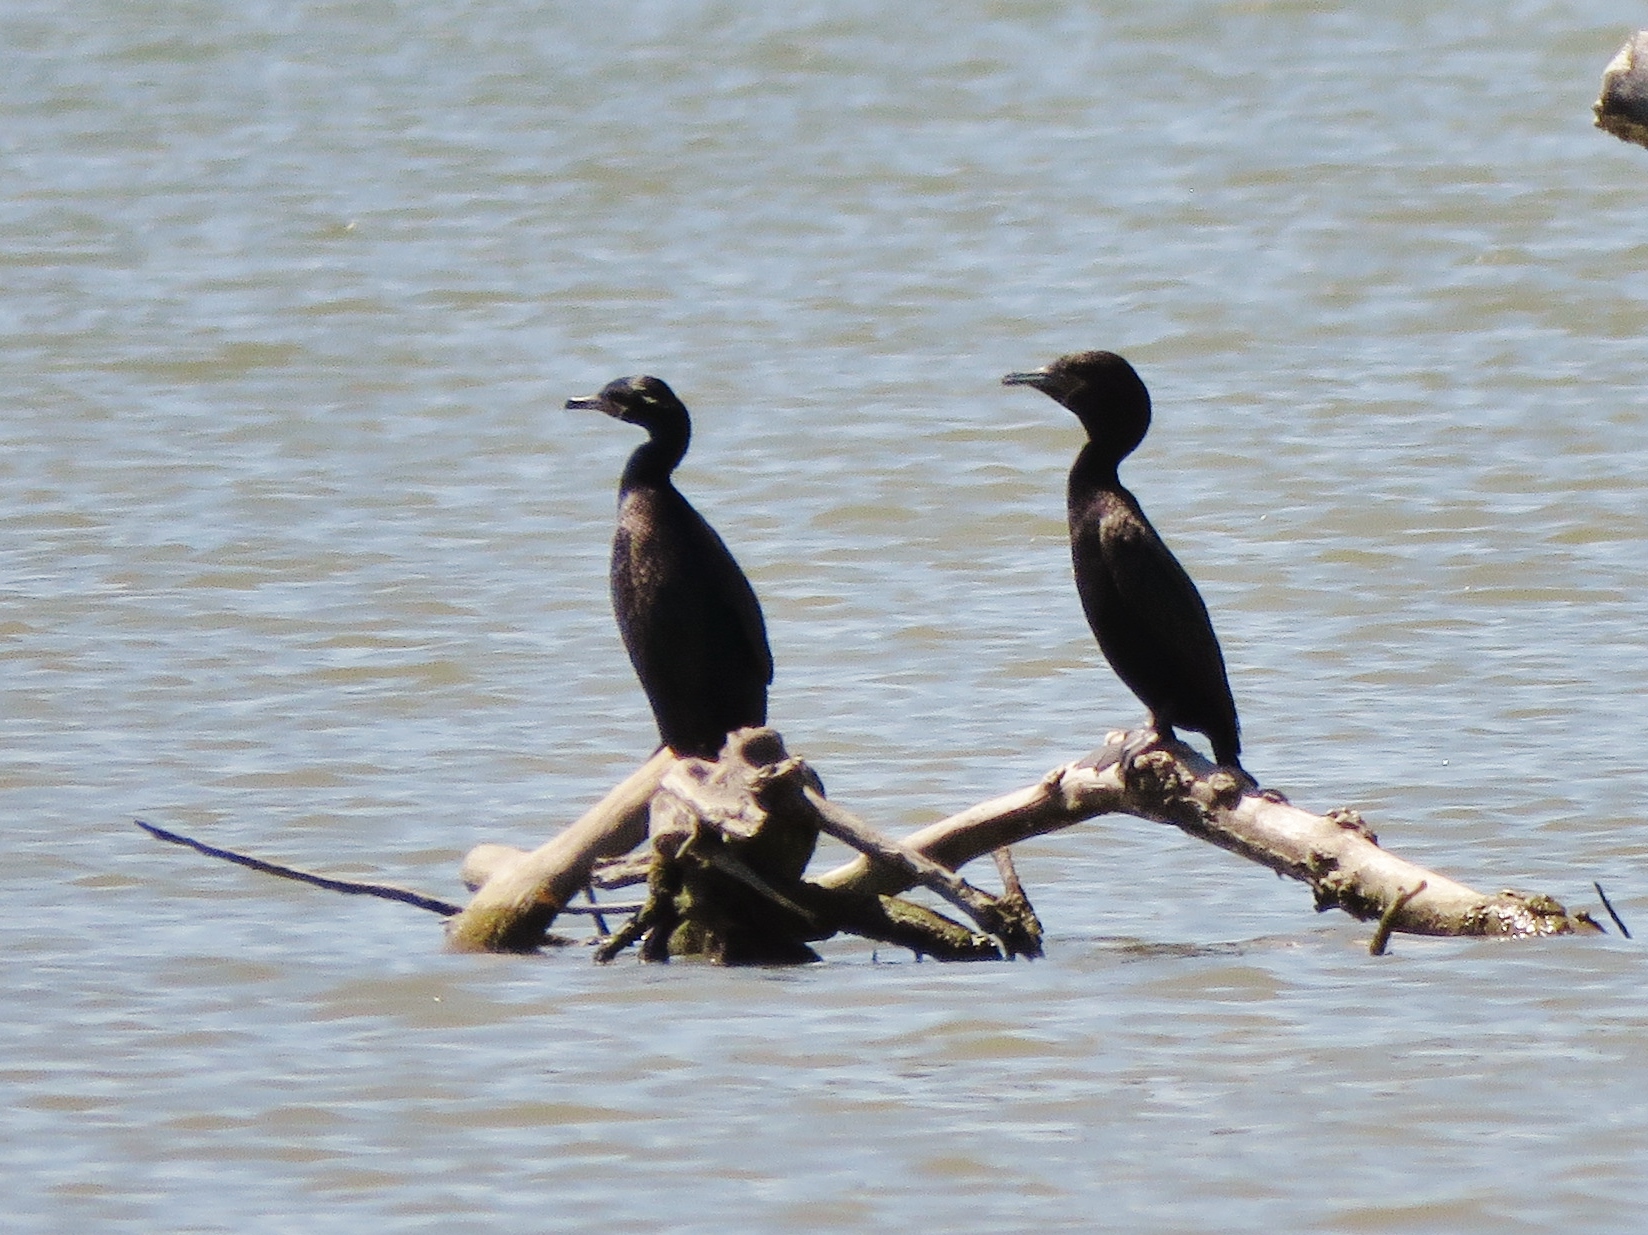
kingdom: Animalia
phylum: Chordata
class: Aves
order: Suliformes
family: Phalacrocoracidae
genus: Phalacrocorax
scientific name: Phalacrocorax brasilianus
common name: Neotropic cormorant
